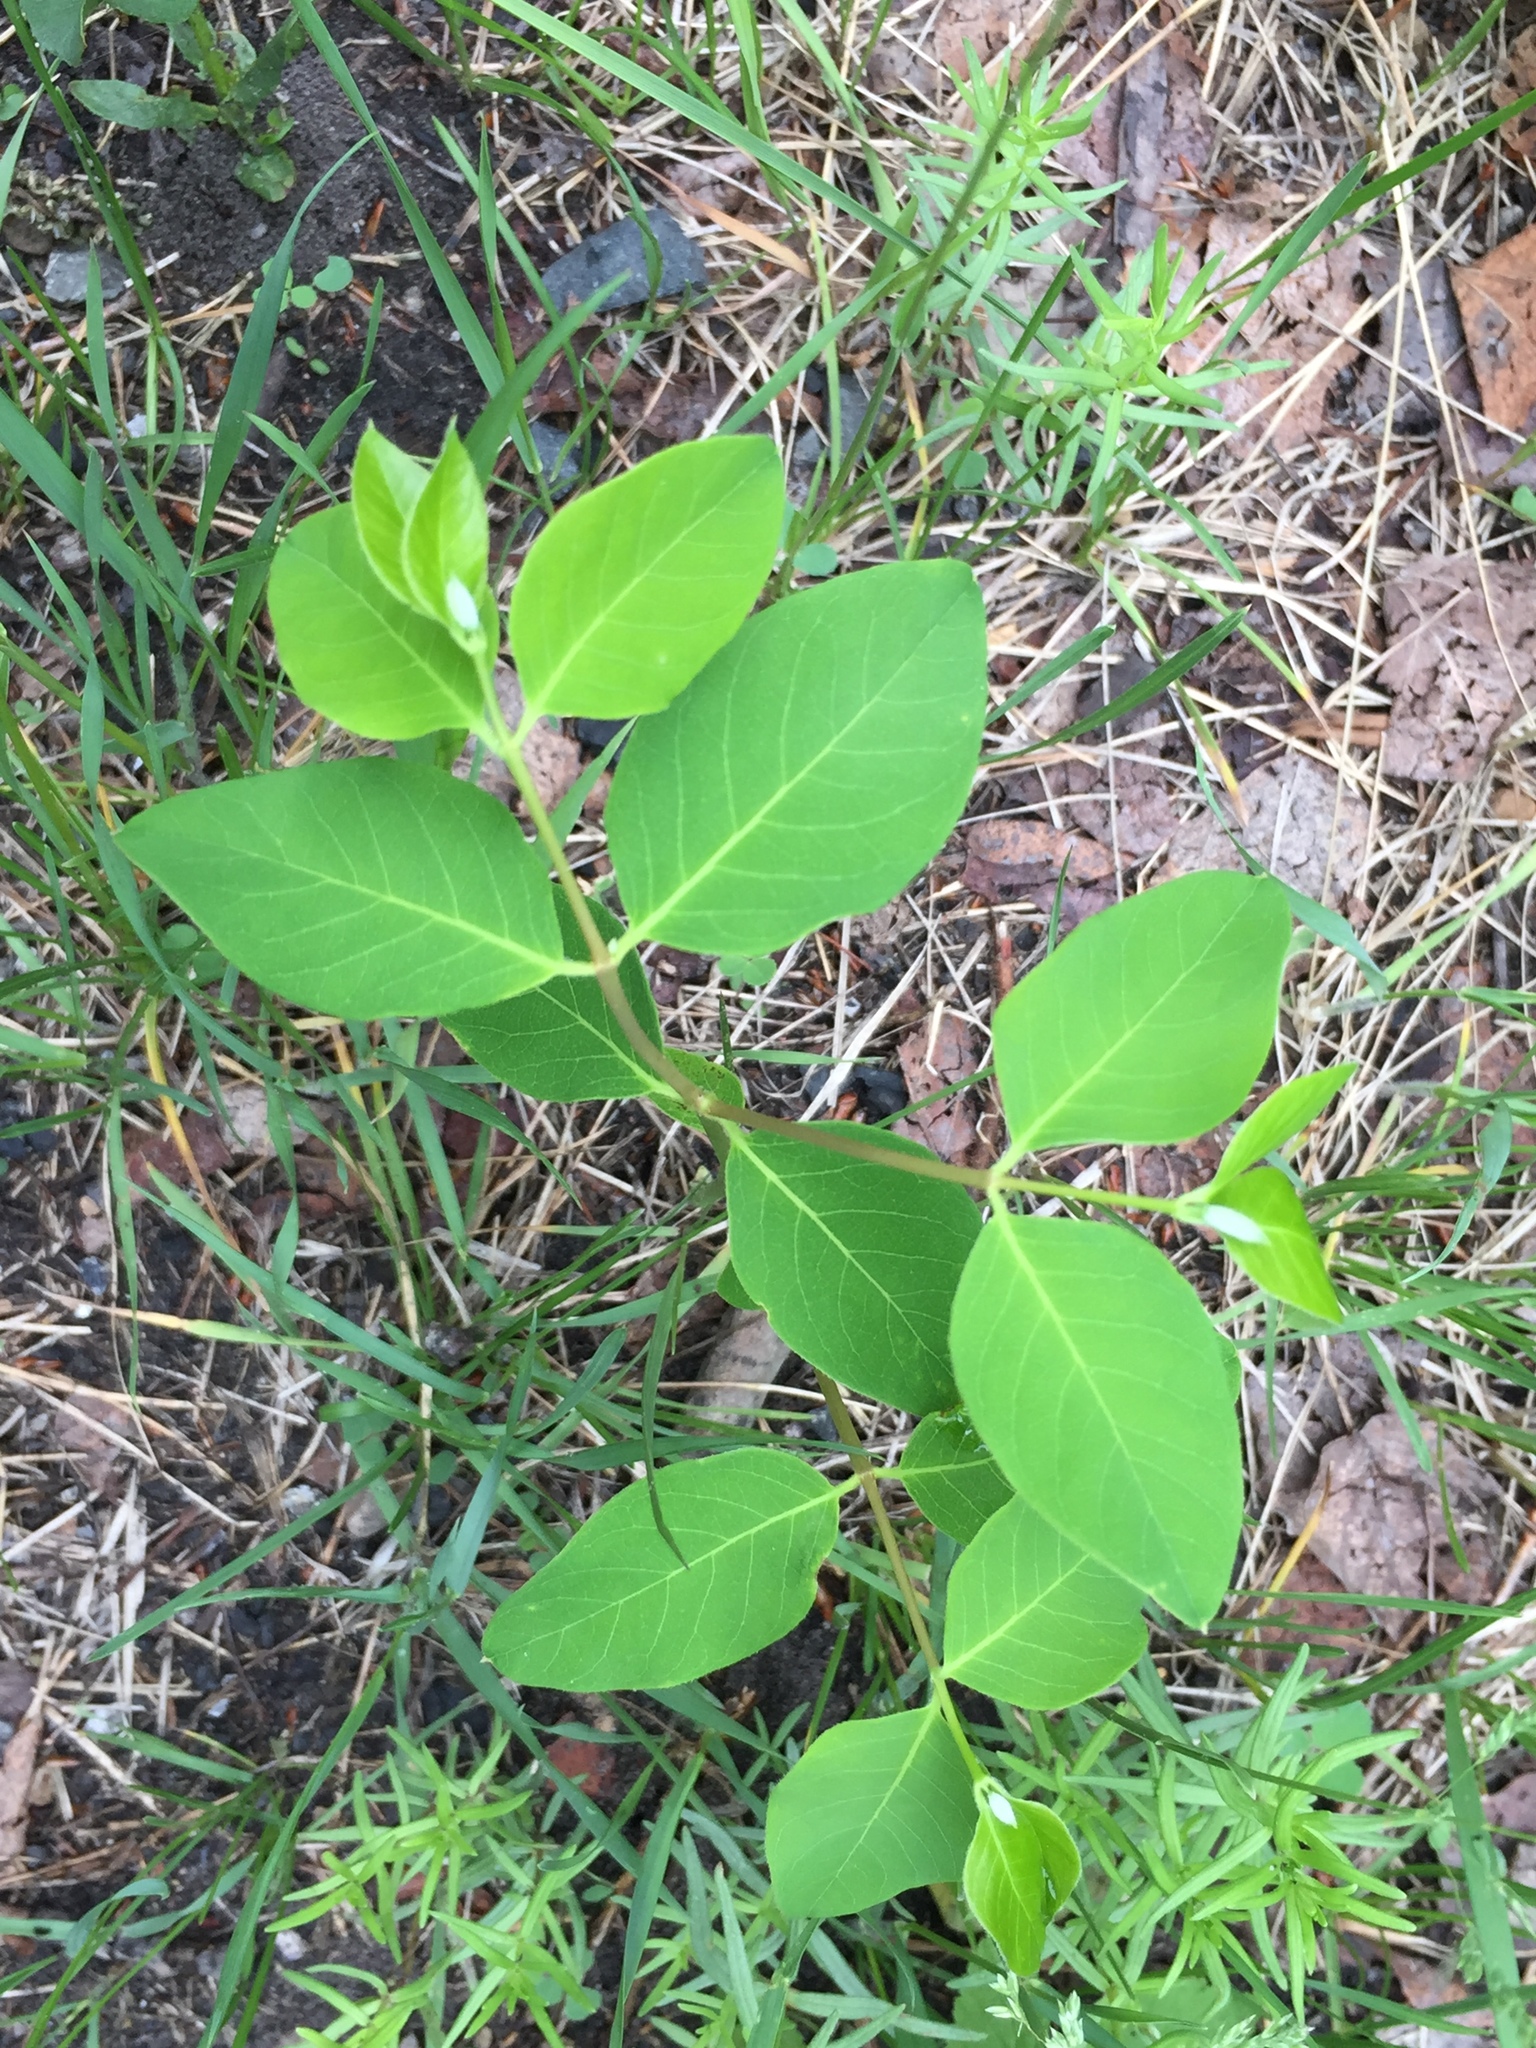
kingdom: Plantae
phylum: Tracheophyta
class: Magnoliopsida
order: Gentianales
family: Apocynaceae
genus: Apocynum
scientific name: Apocynum androsaemifolium
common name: Spreading dogbane
